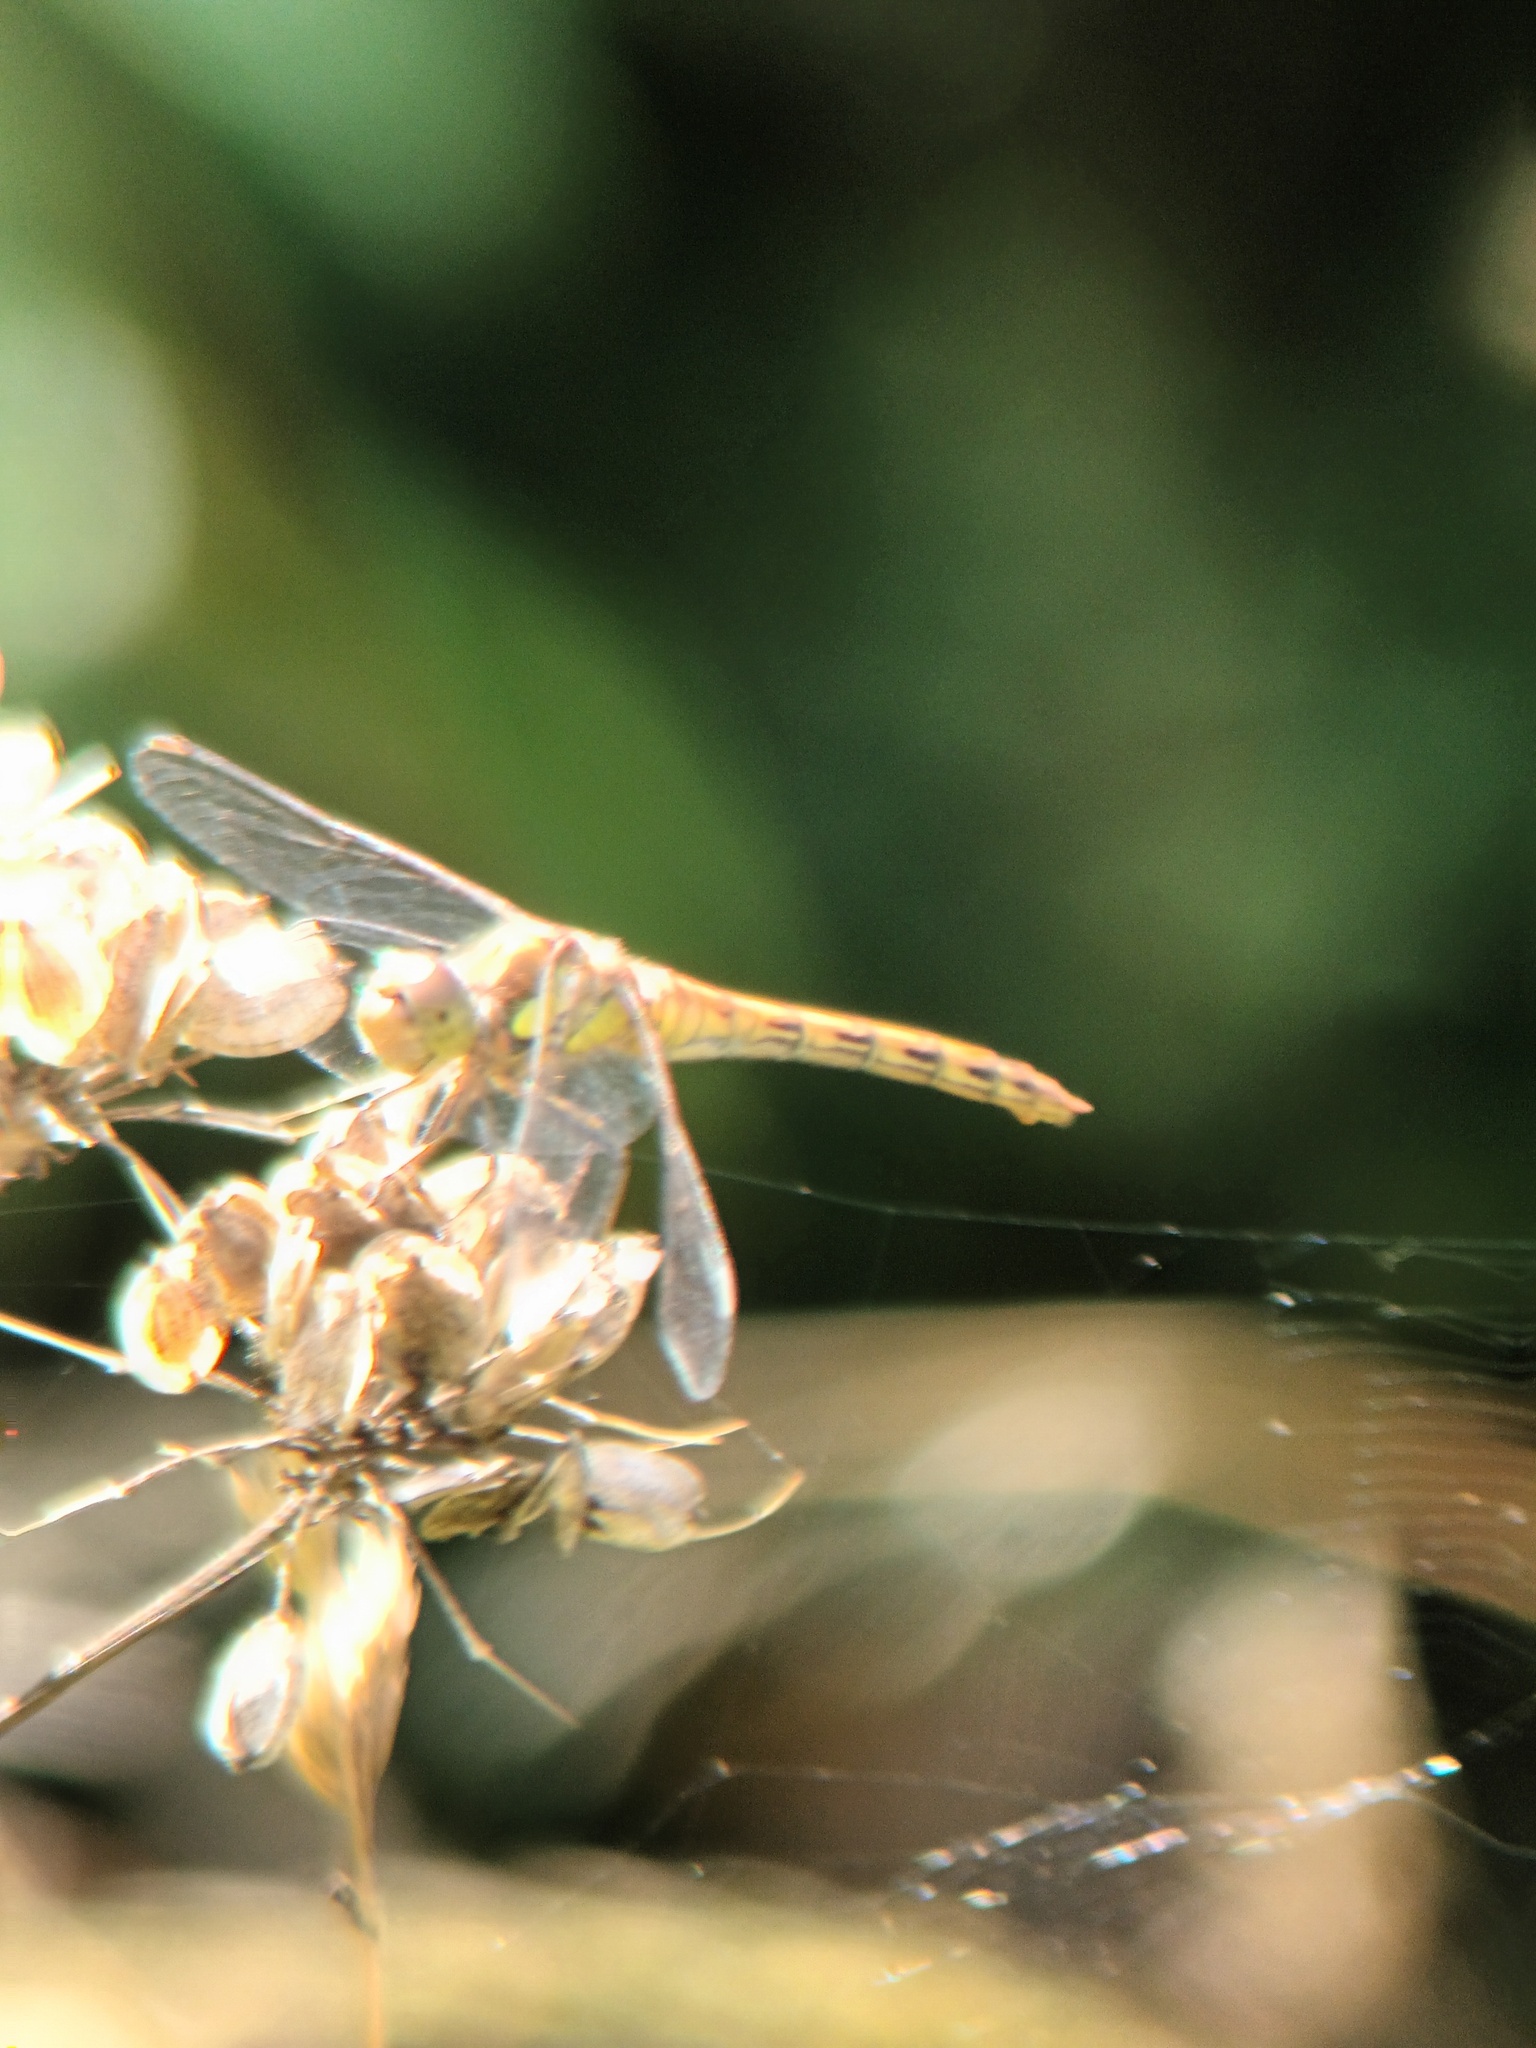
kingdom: Animalia
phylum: Arthropoda
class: Insecta
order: Odonata
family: Libellulidae
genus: Sympetrum
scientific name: Sympetrum striolatum
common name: Common darter
